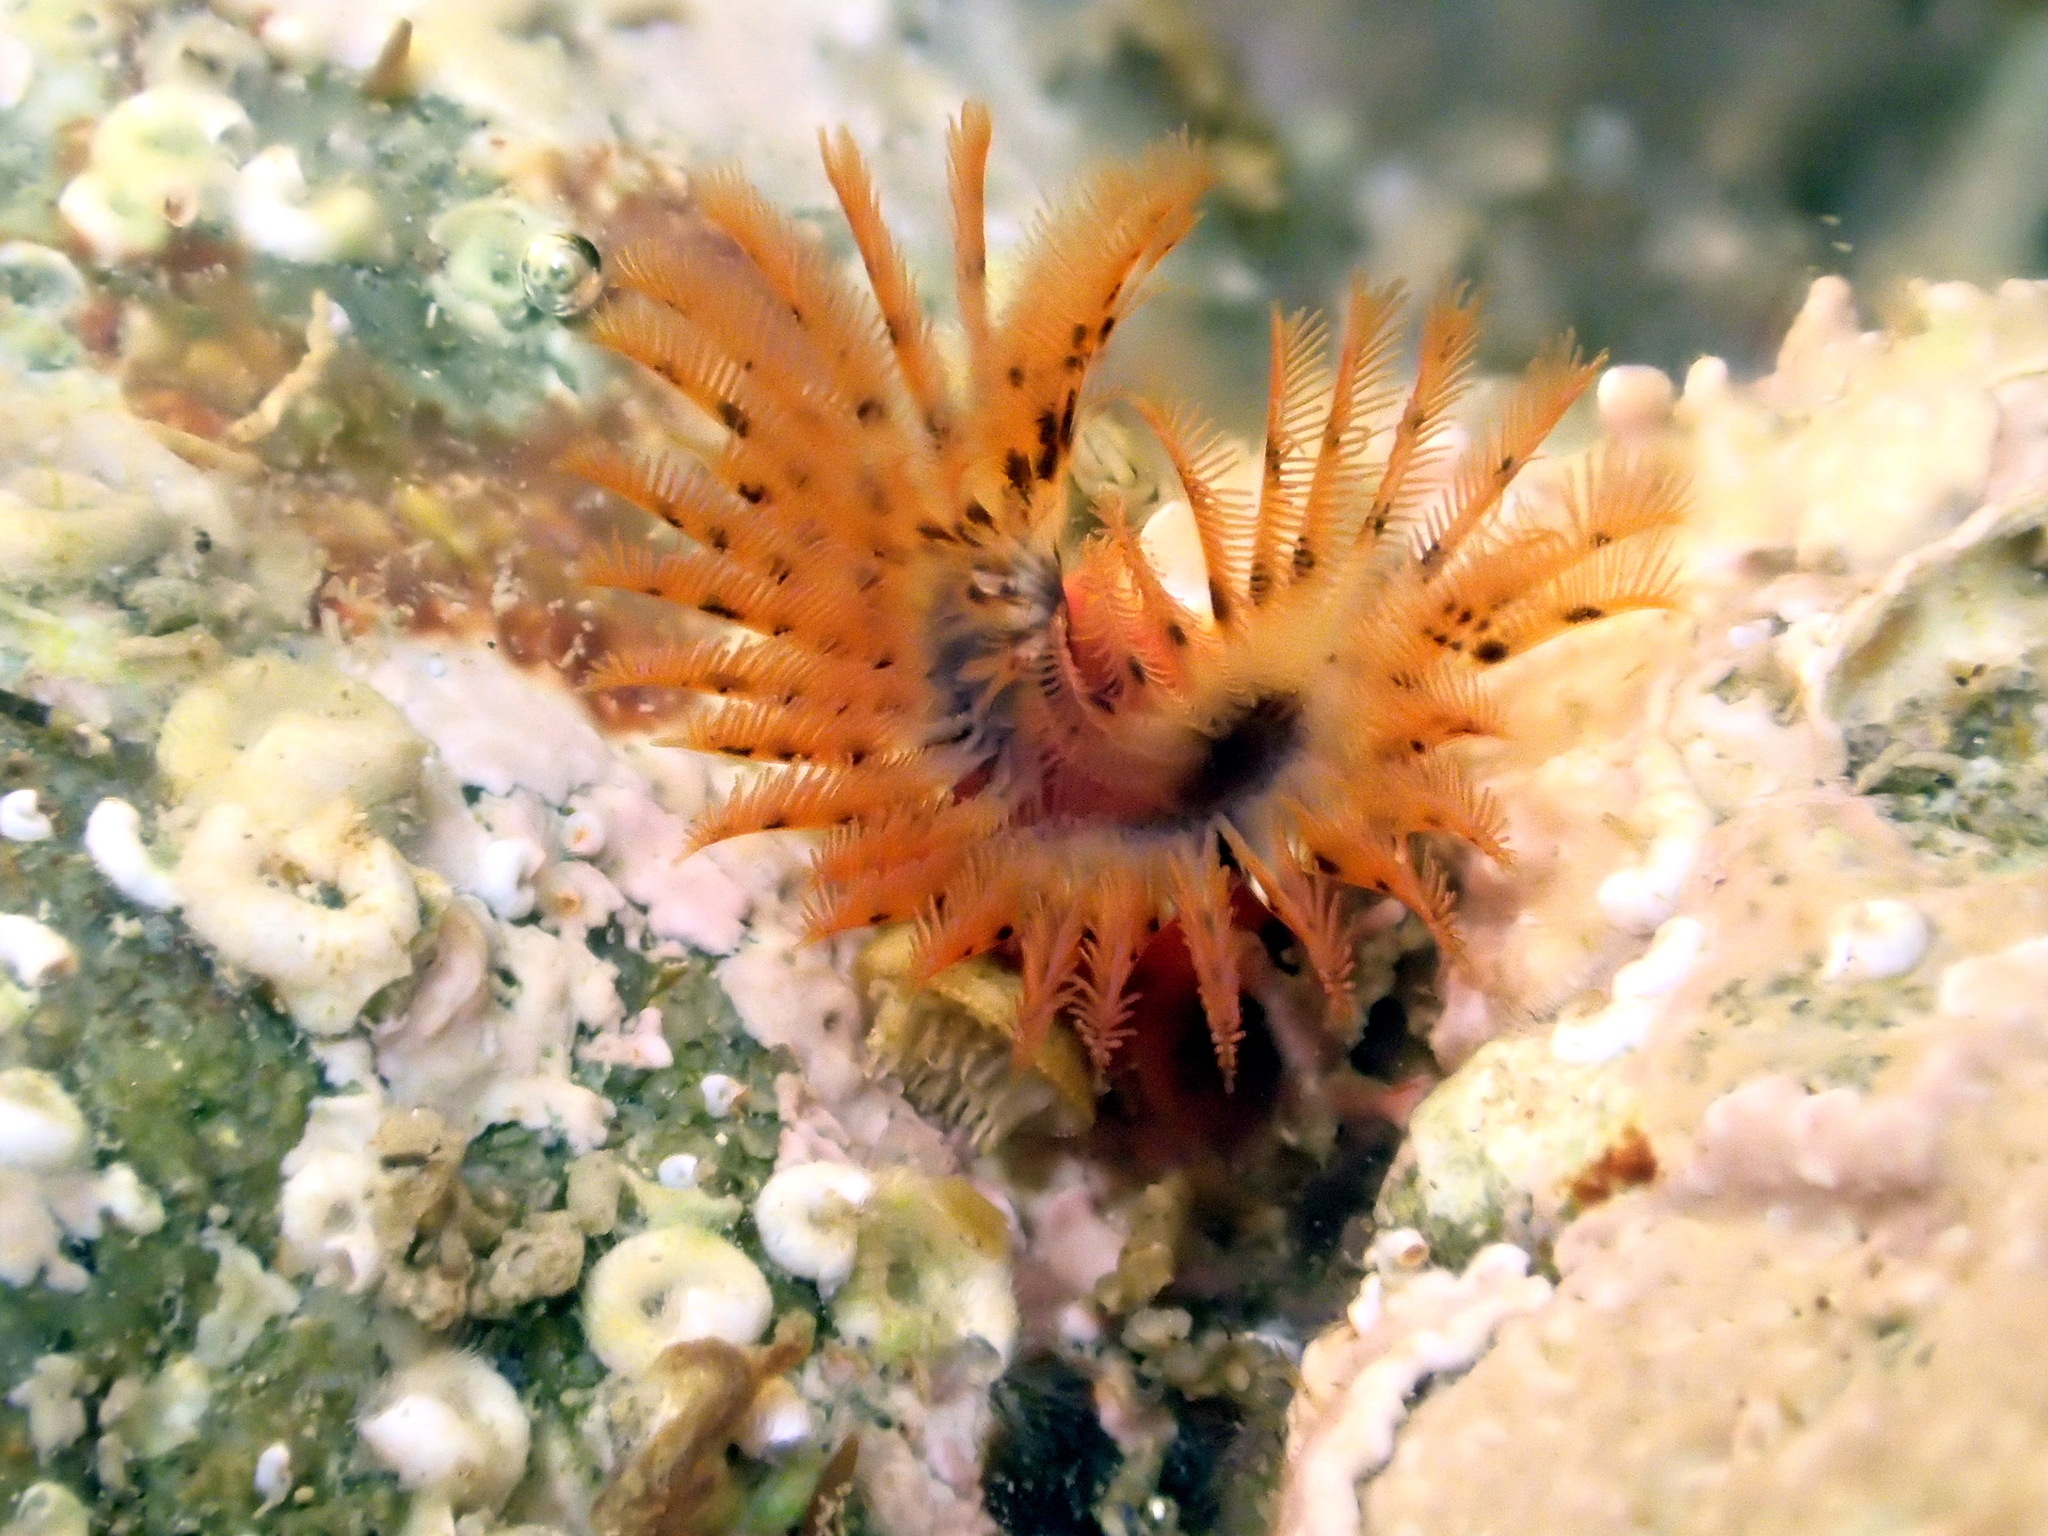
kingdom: Animalia
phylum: Annelida
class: Polychaeta
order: Sabellida
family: Serpulidae
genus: Galeolaria
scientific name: Galeolaria hystrix
